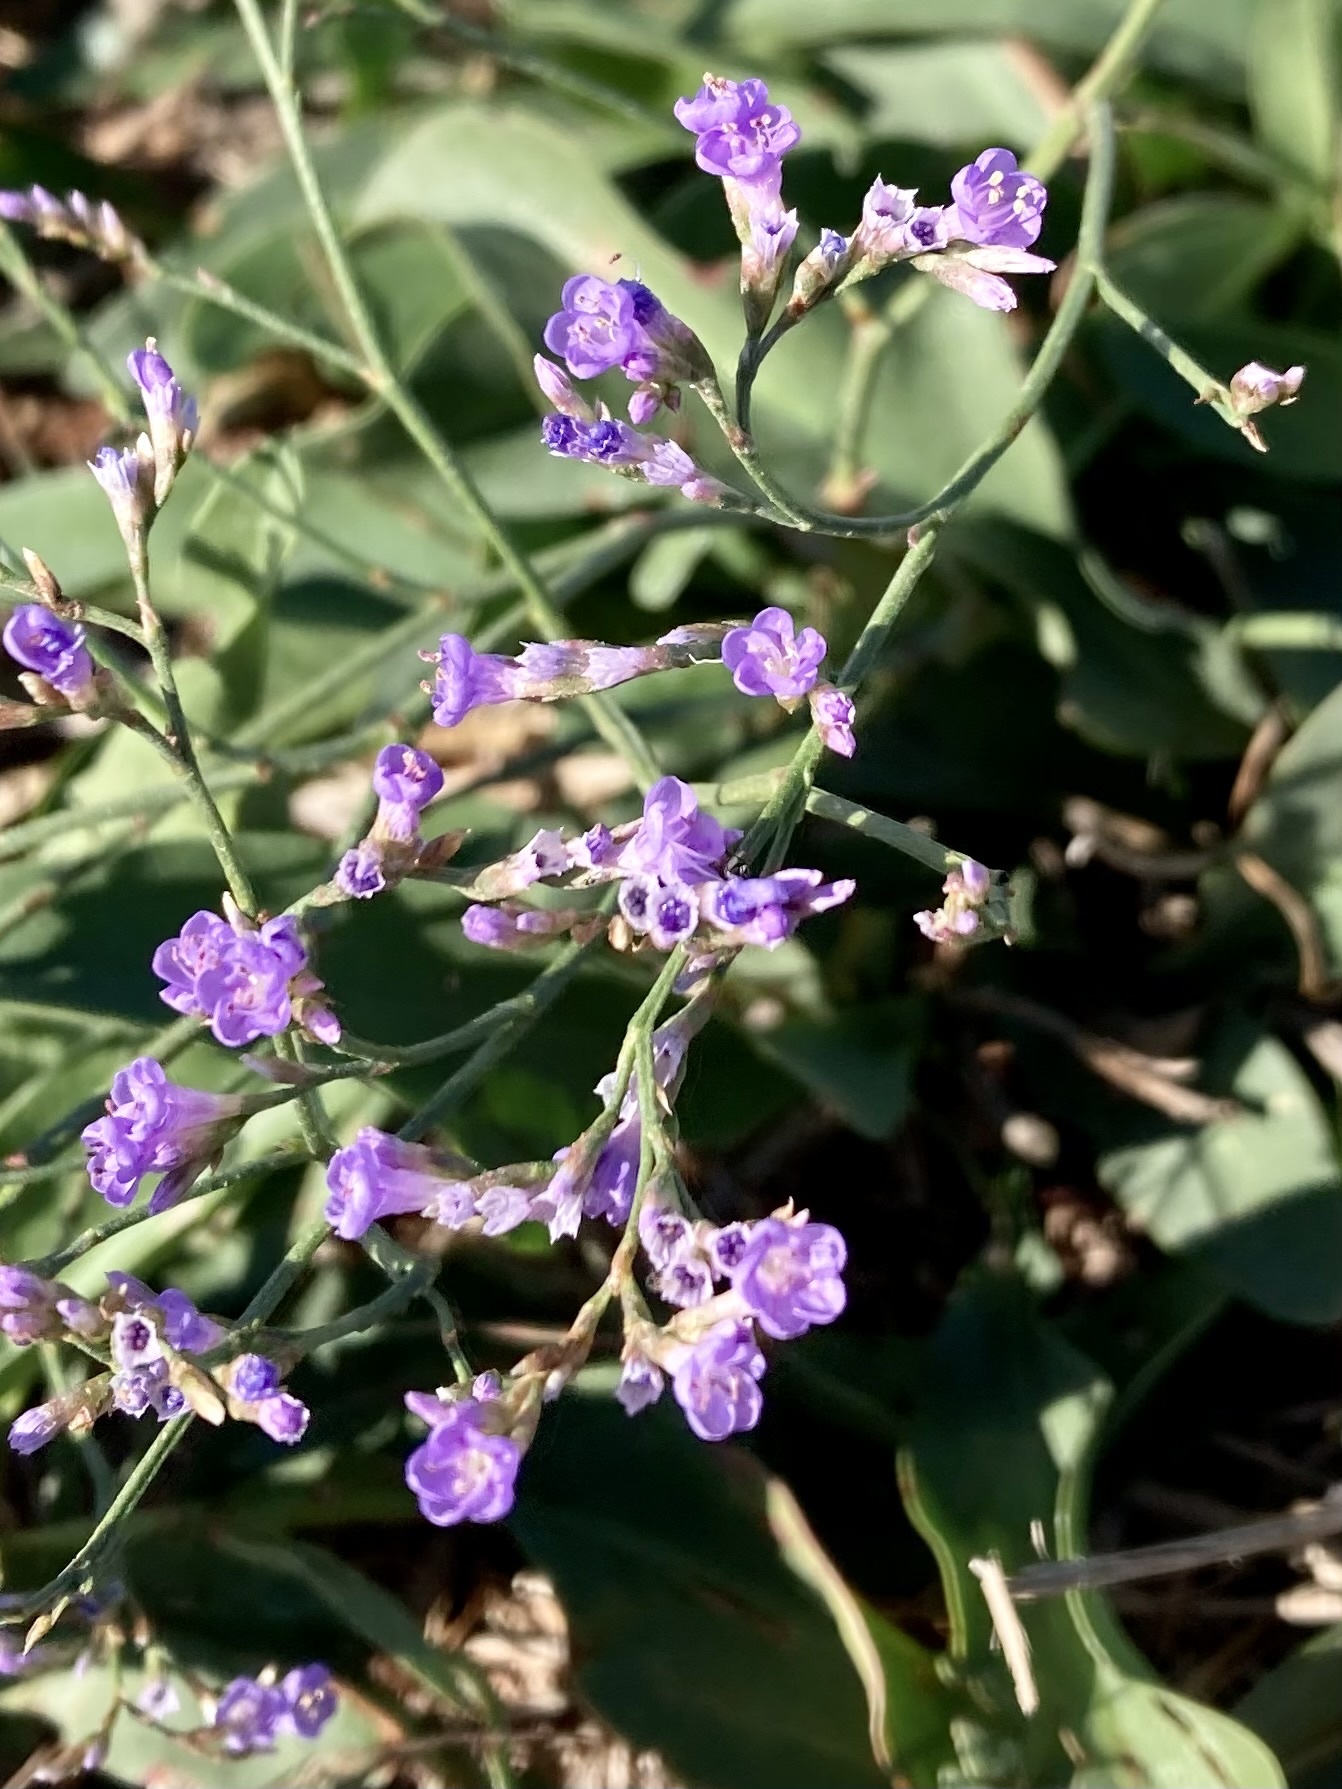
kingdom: Plantae
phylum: Tracheophyta
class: Magnoliopsida
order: Caryophyllales
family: Plumbaginaceae
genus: Limonium
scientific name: Limonium narbonense
